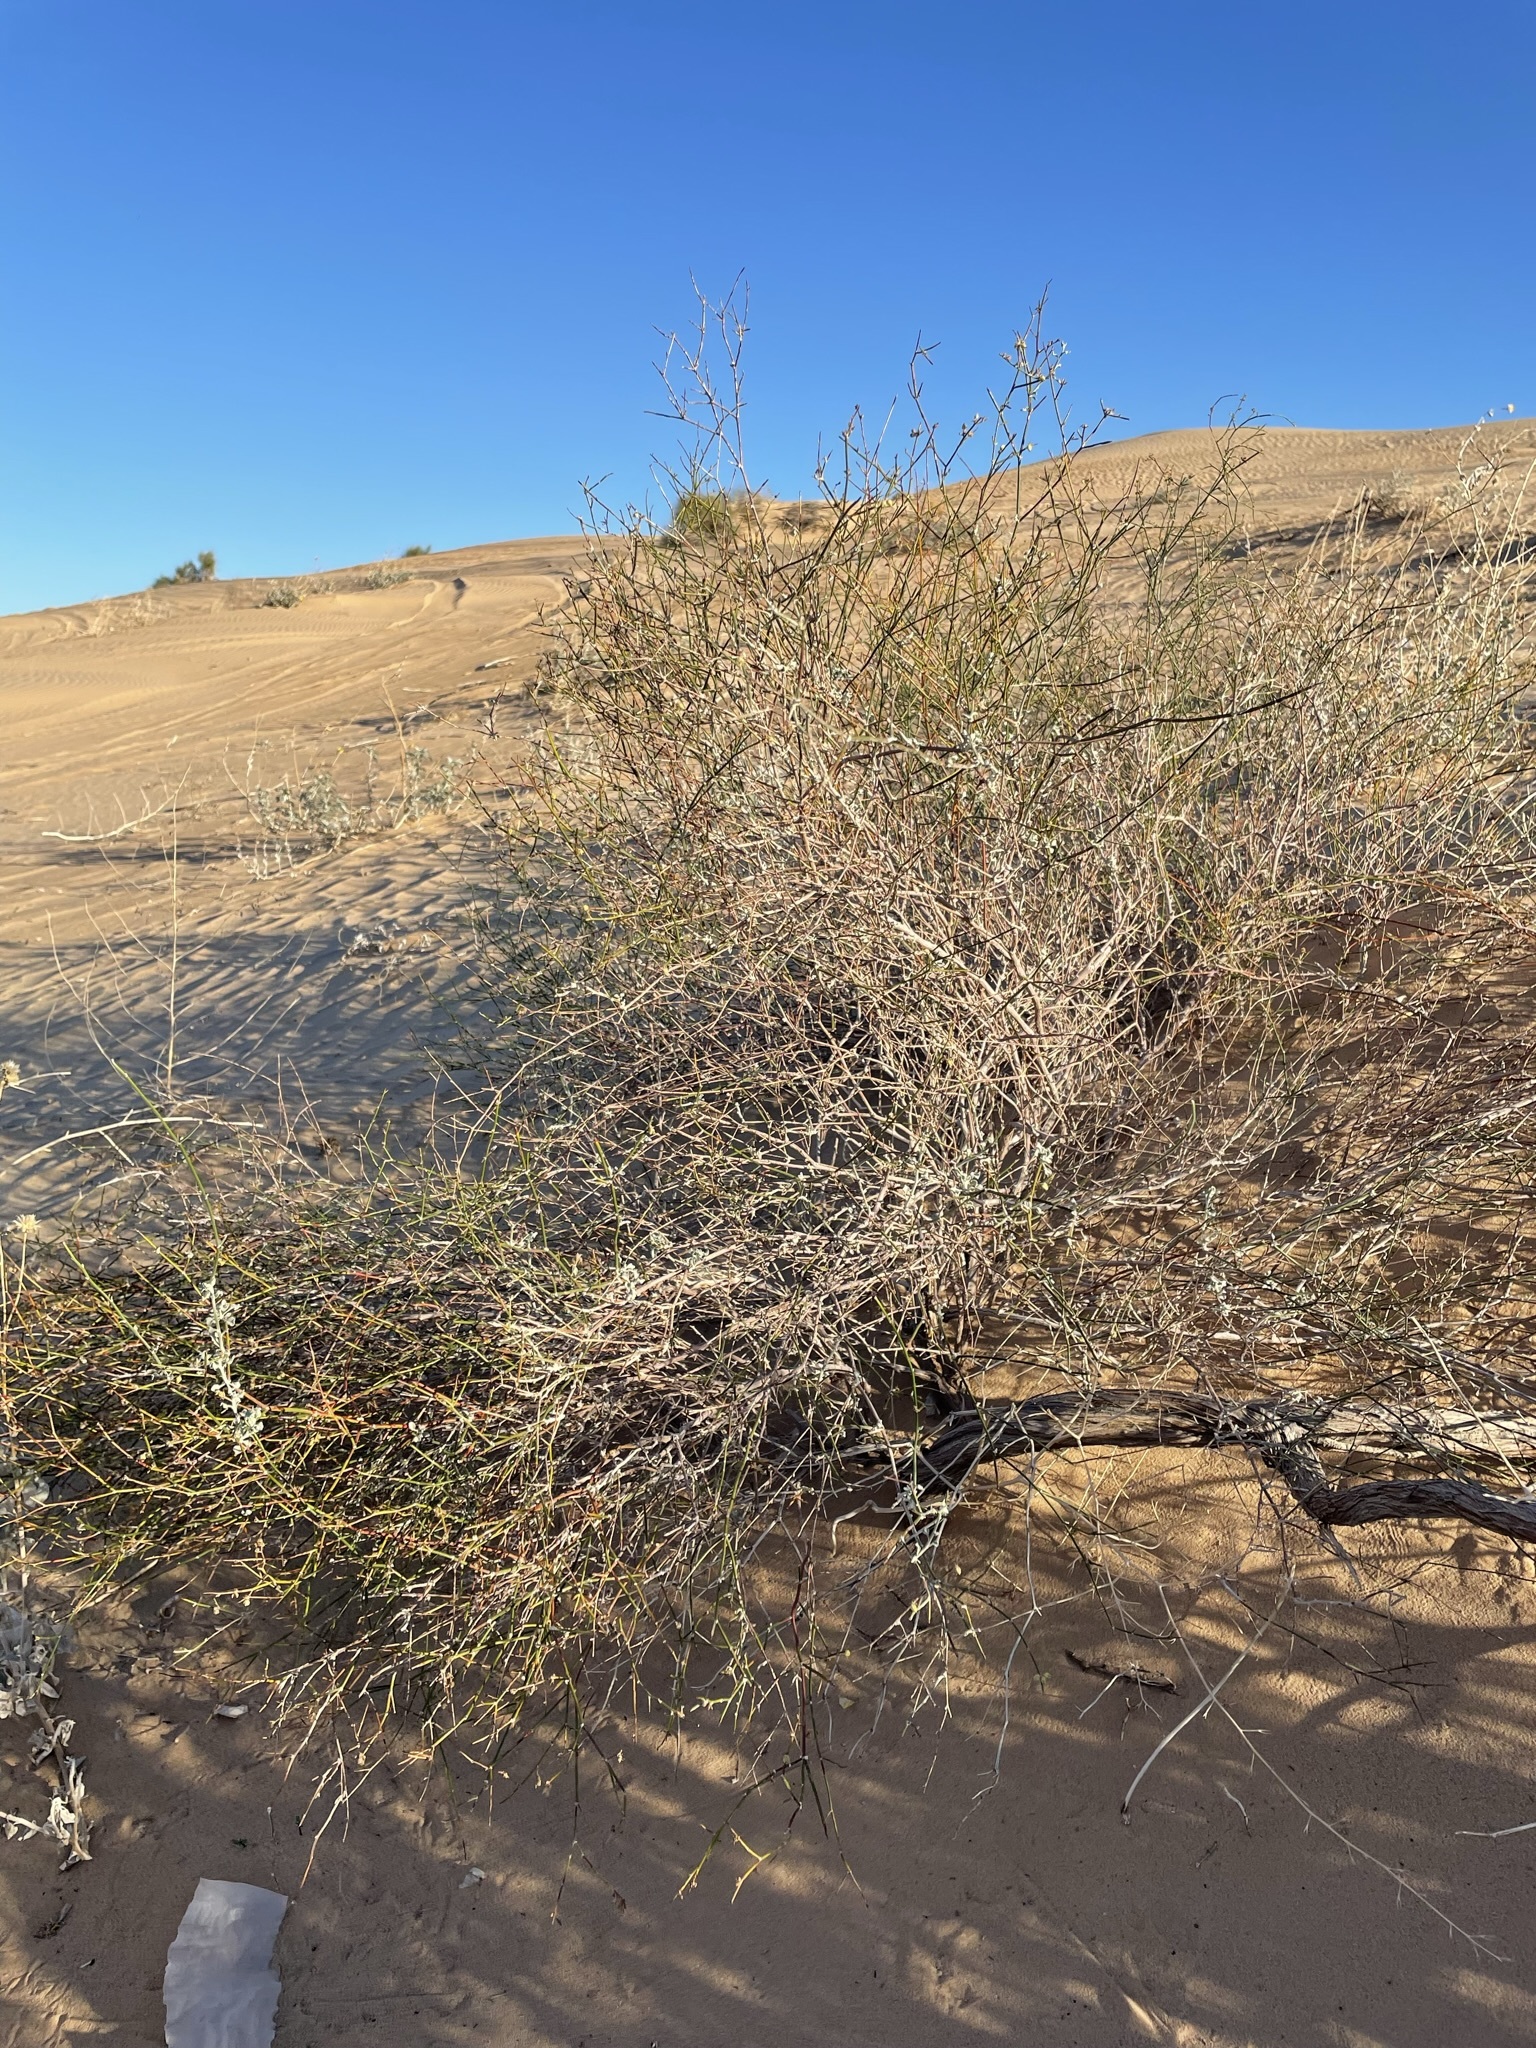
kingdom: Plantae
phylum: Tracheophyta
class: Magnoliopsida
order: Caryophyllales
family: Polygonaceae
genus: Eriogonum
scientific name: Eriogonum deserticola
